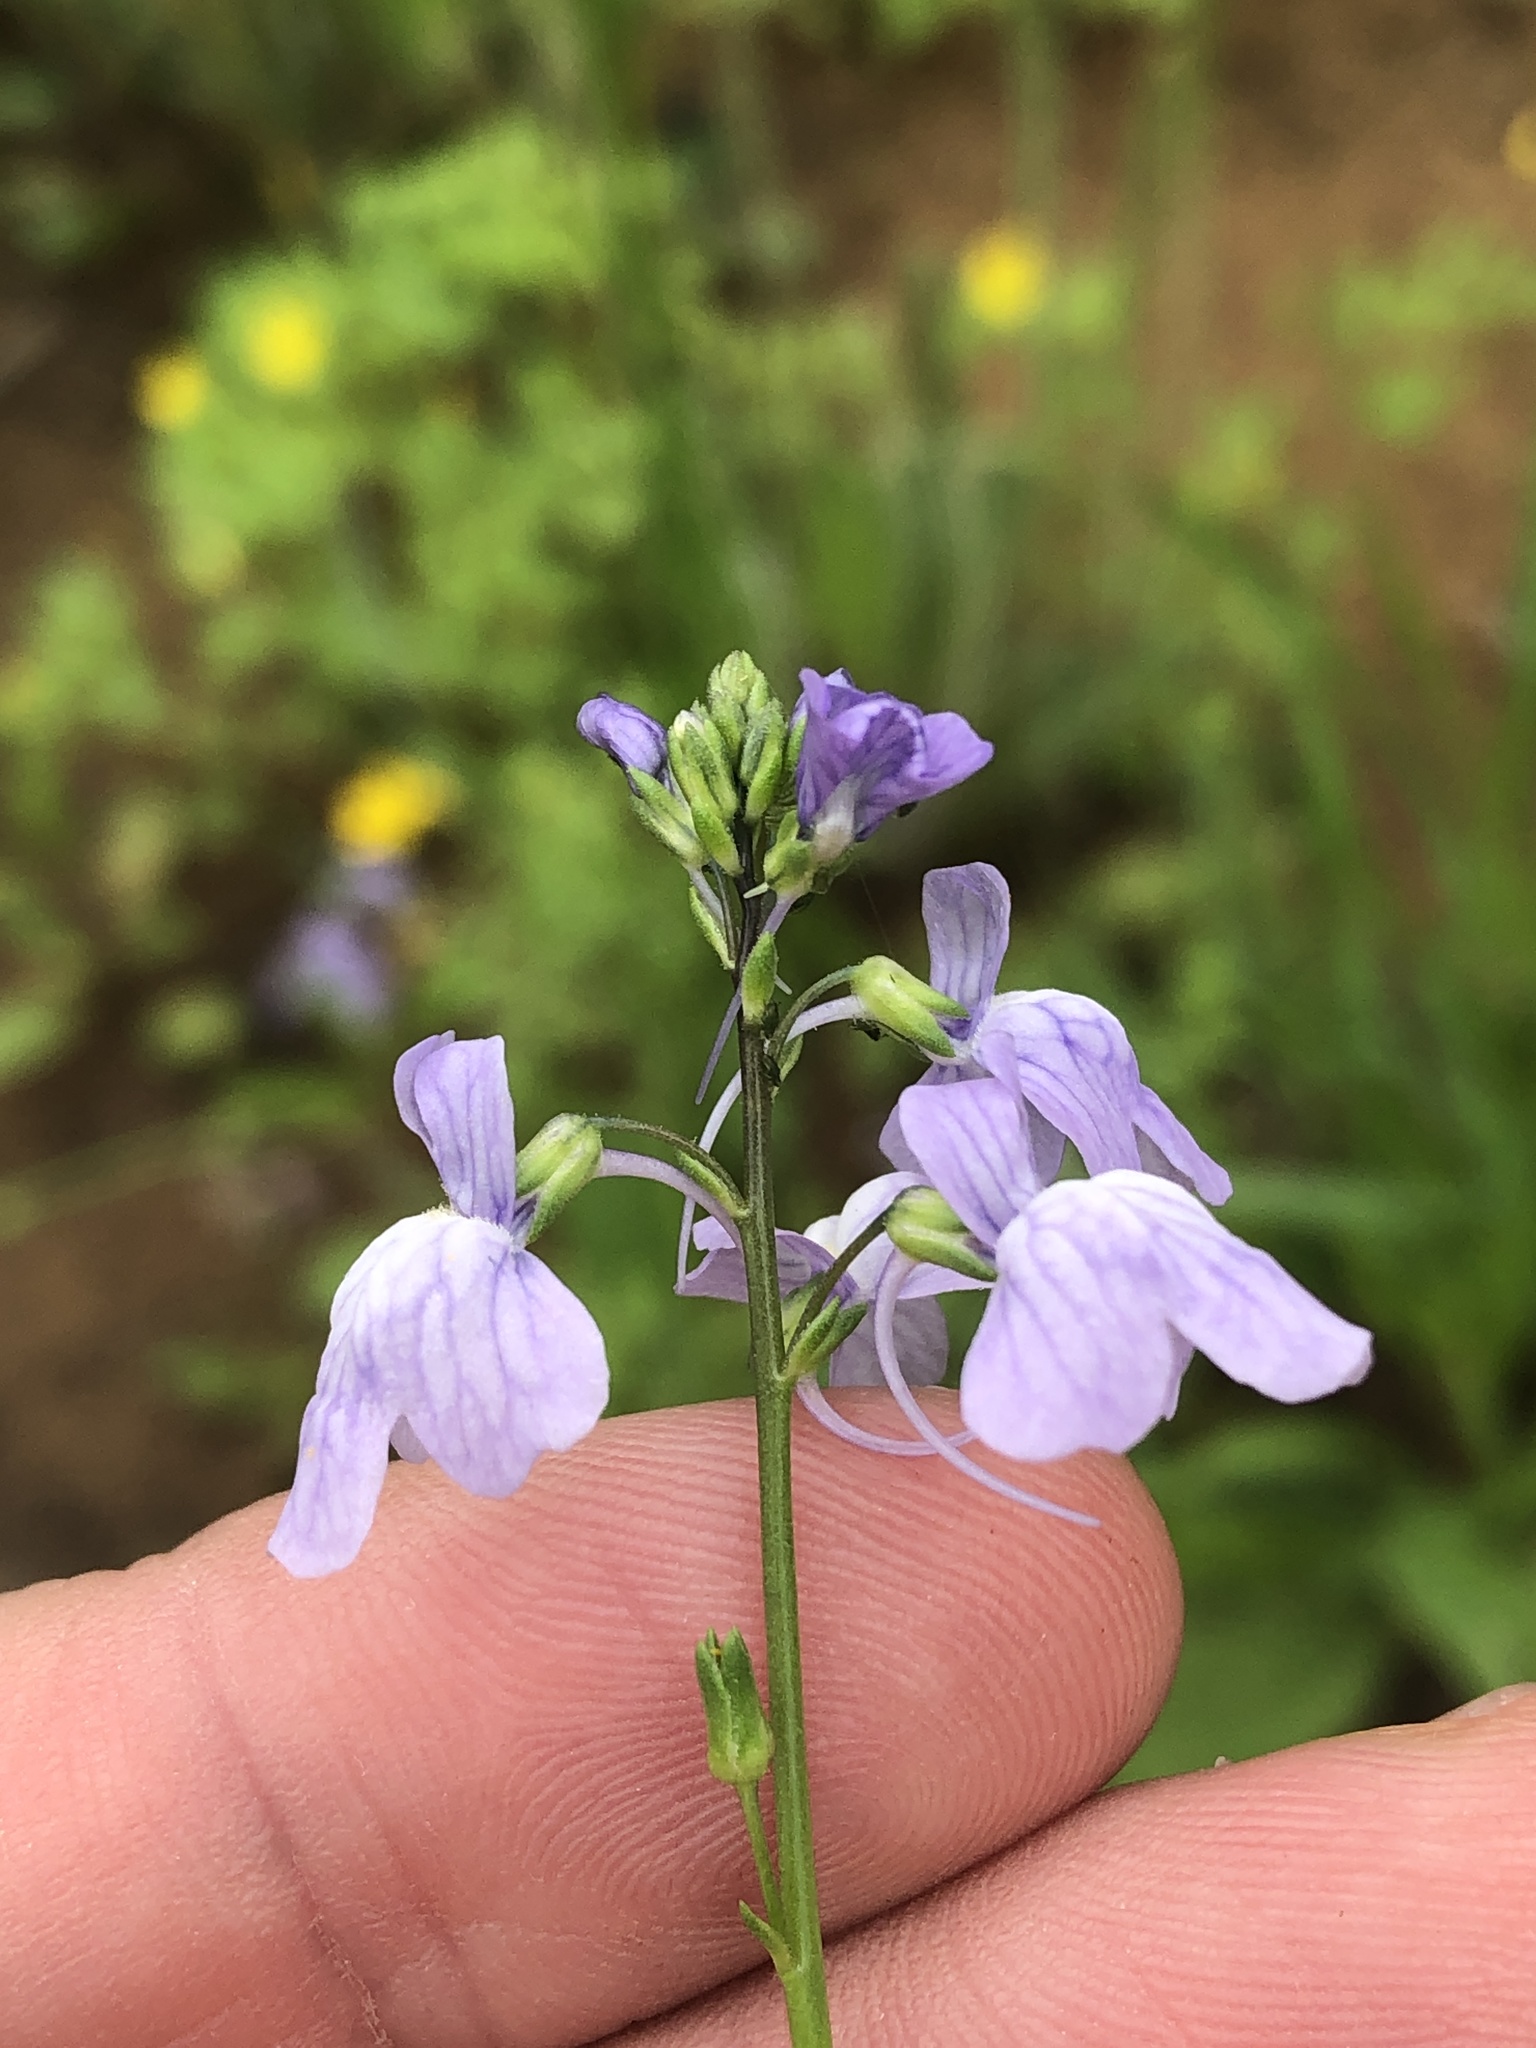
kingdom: Plantae
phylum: Tracheophyta
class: Magnoliopsida
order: Lamiales
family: Plantaginaceae
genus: Nuttallanthus
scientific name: Nuttallanthus texanus
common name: Texas toadflax
